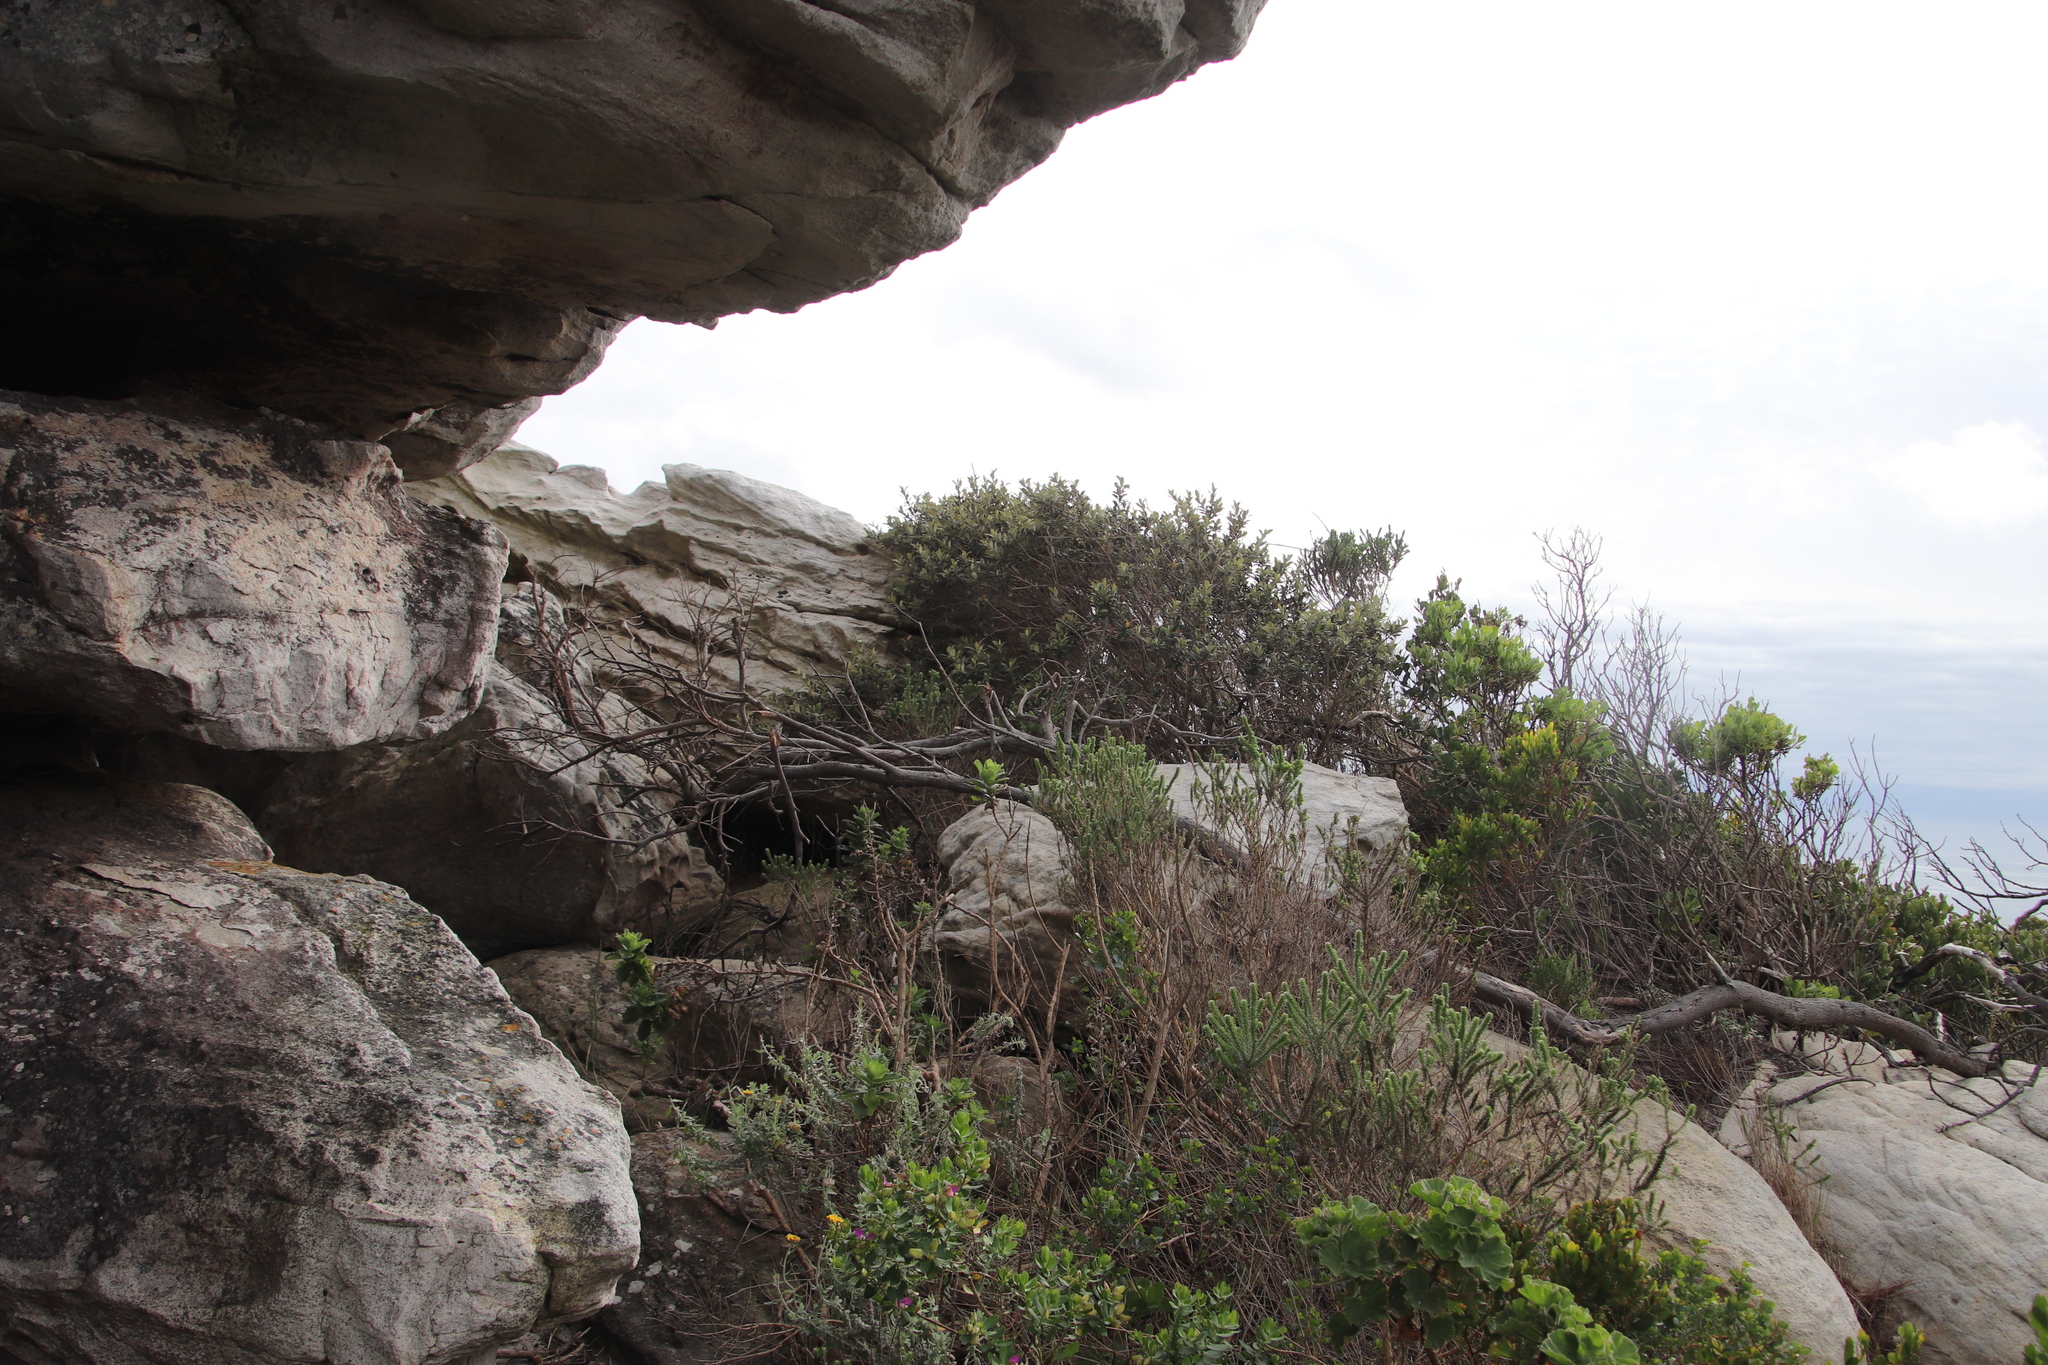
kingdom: Plantae
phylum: Tracheophyta
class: Magnoliopsida
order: Asterales
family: Asteraceae
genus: Tarchonanthus
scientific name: Tarchonanthus littoralis
